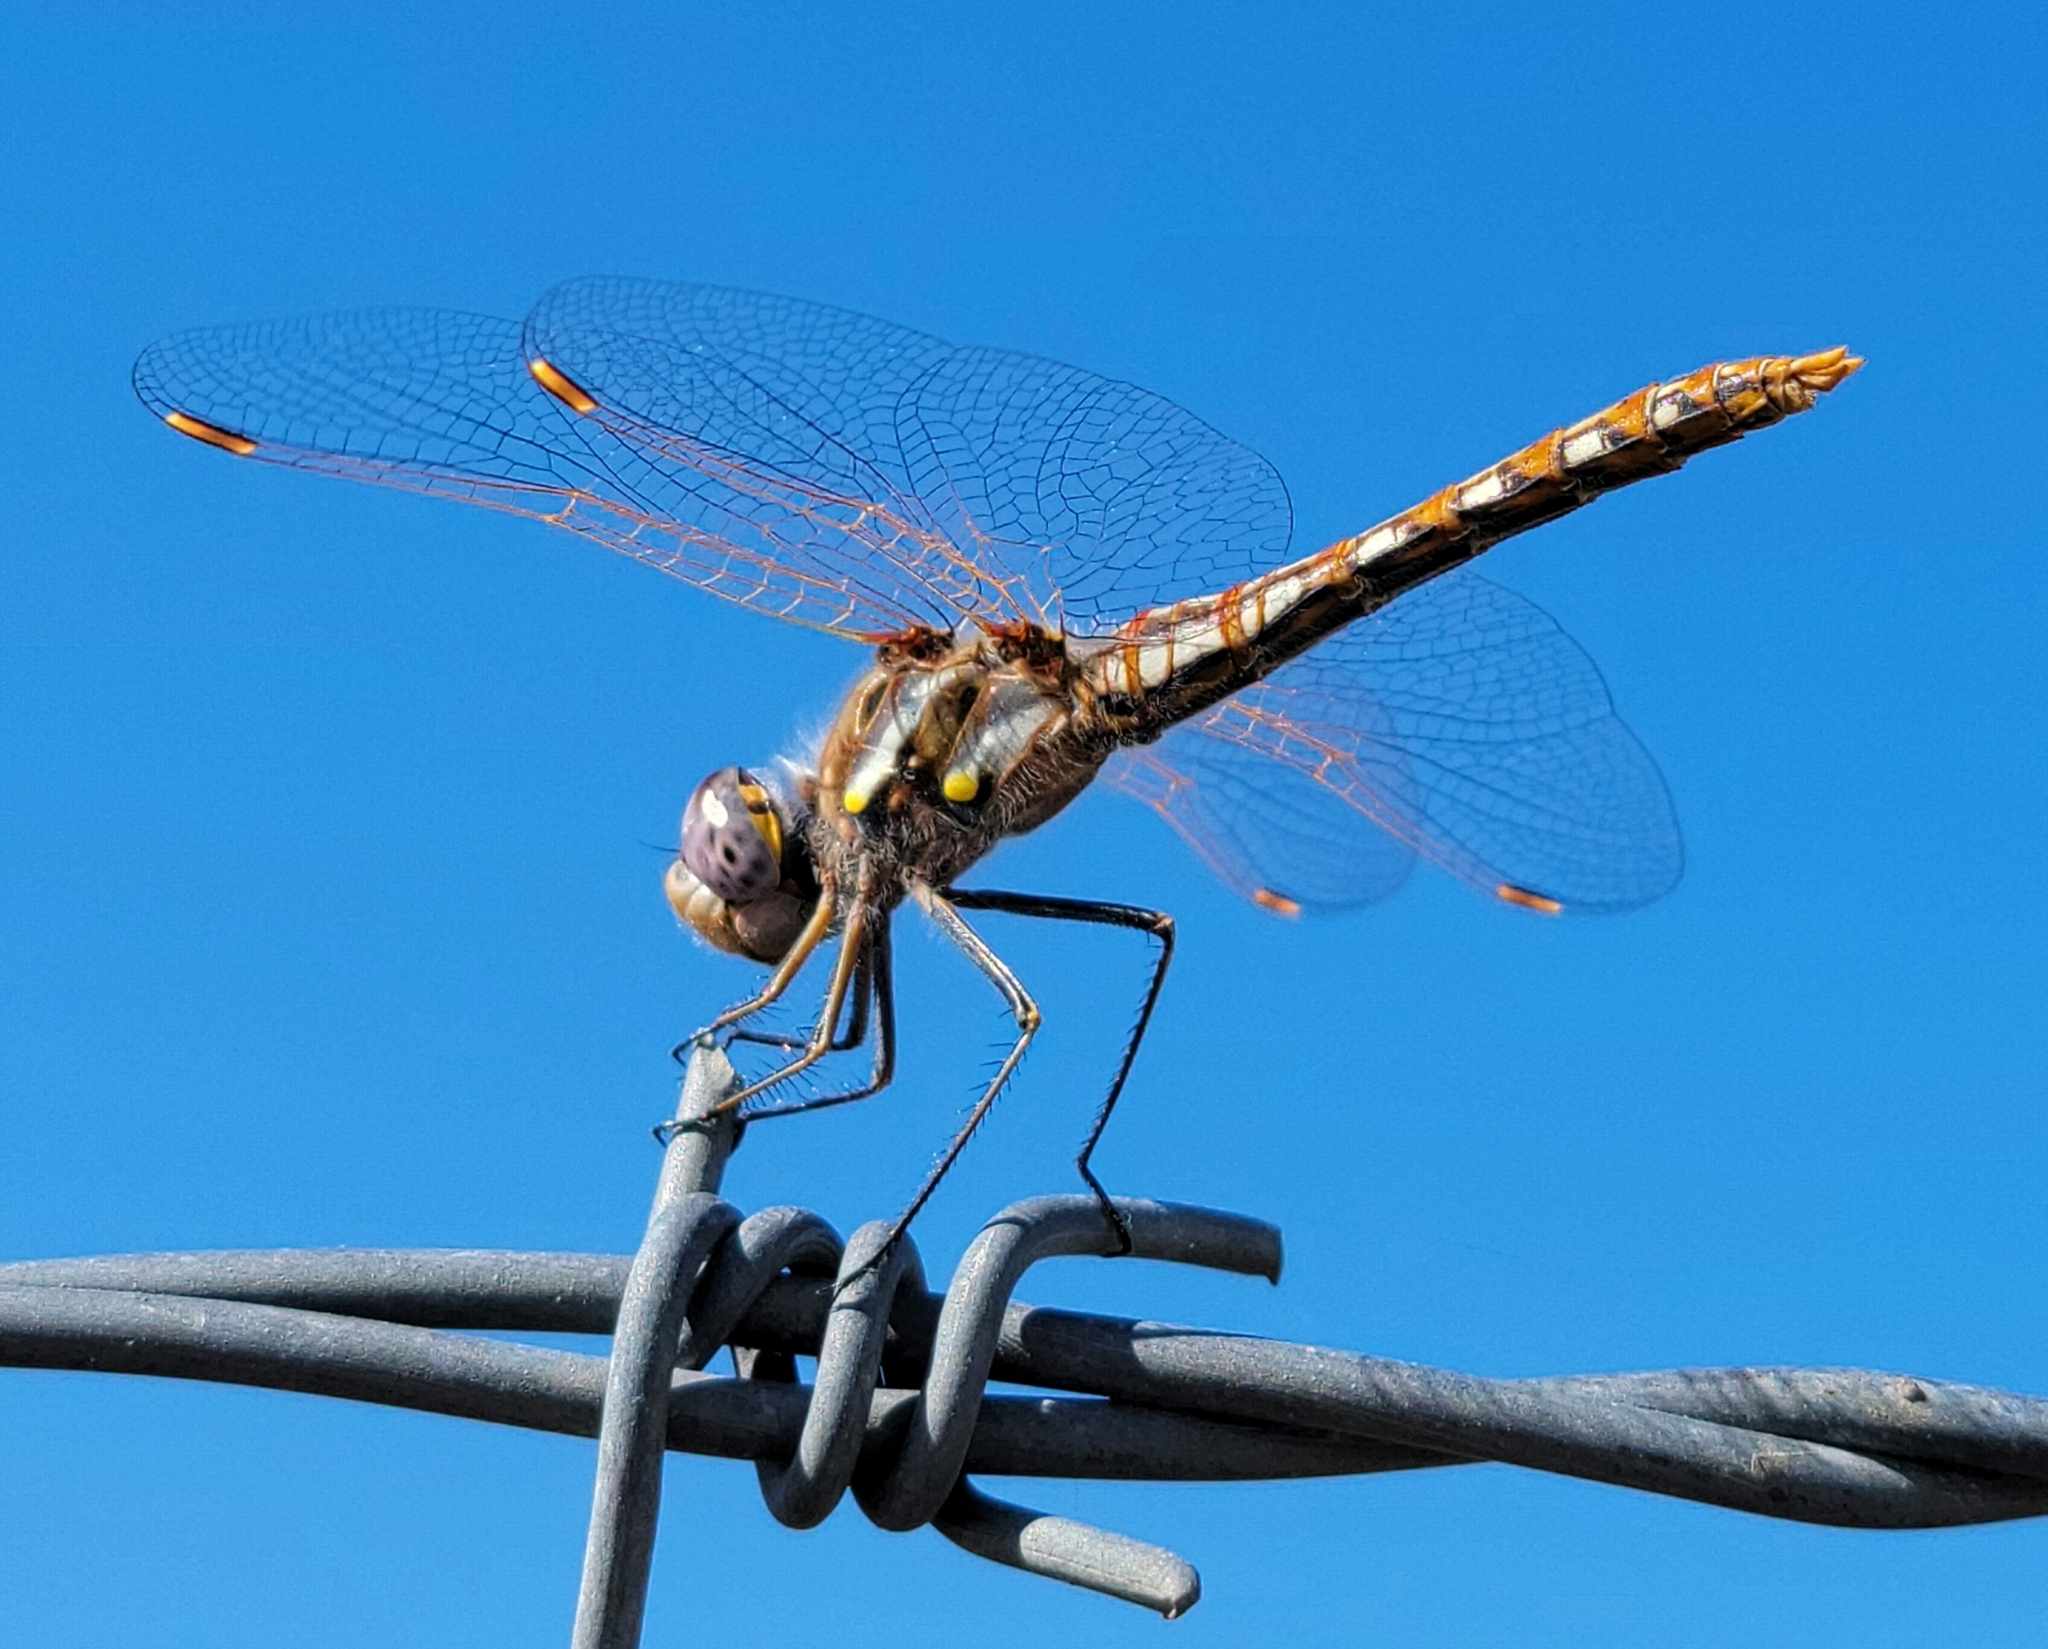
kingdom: Animalia
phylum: Arthropoda
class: Insecta
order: Odonata
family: Libellulidae
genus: Sympetrum
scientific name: Sympetrum corruptum
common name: Variegated meadowhawk
